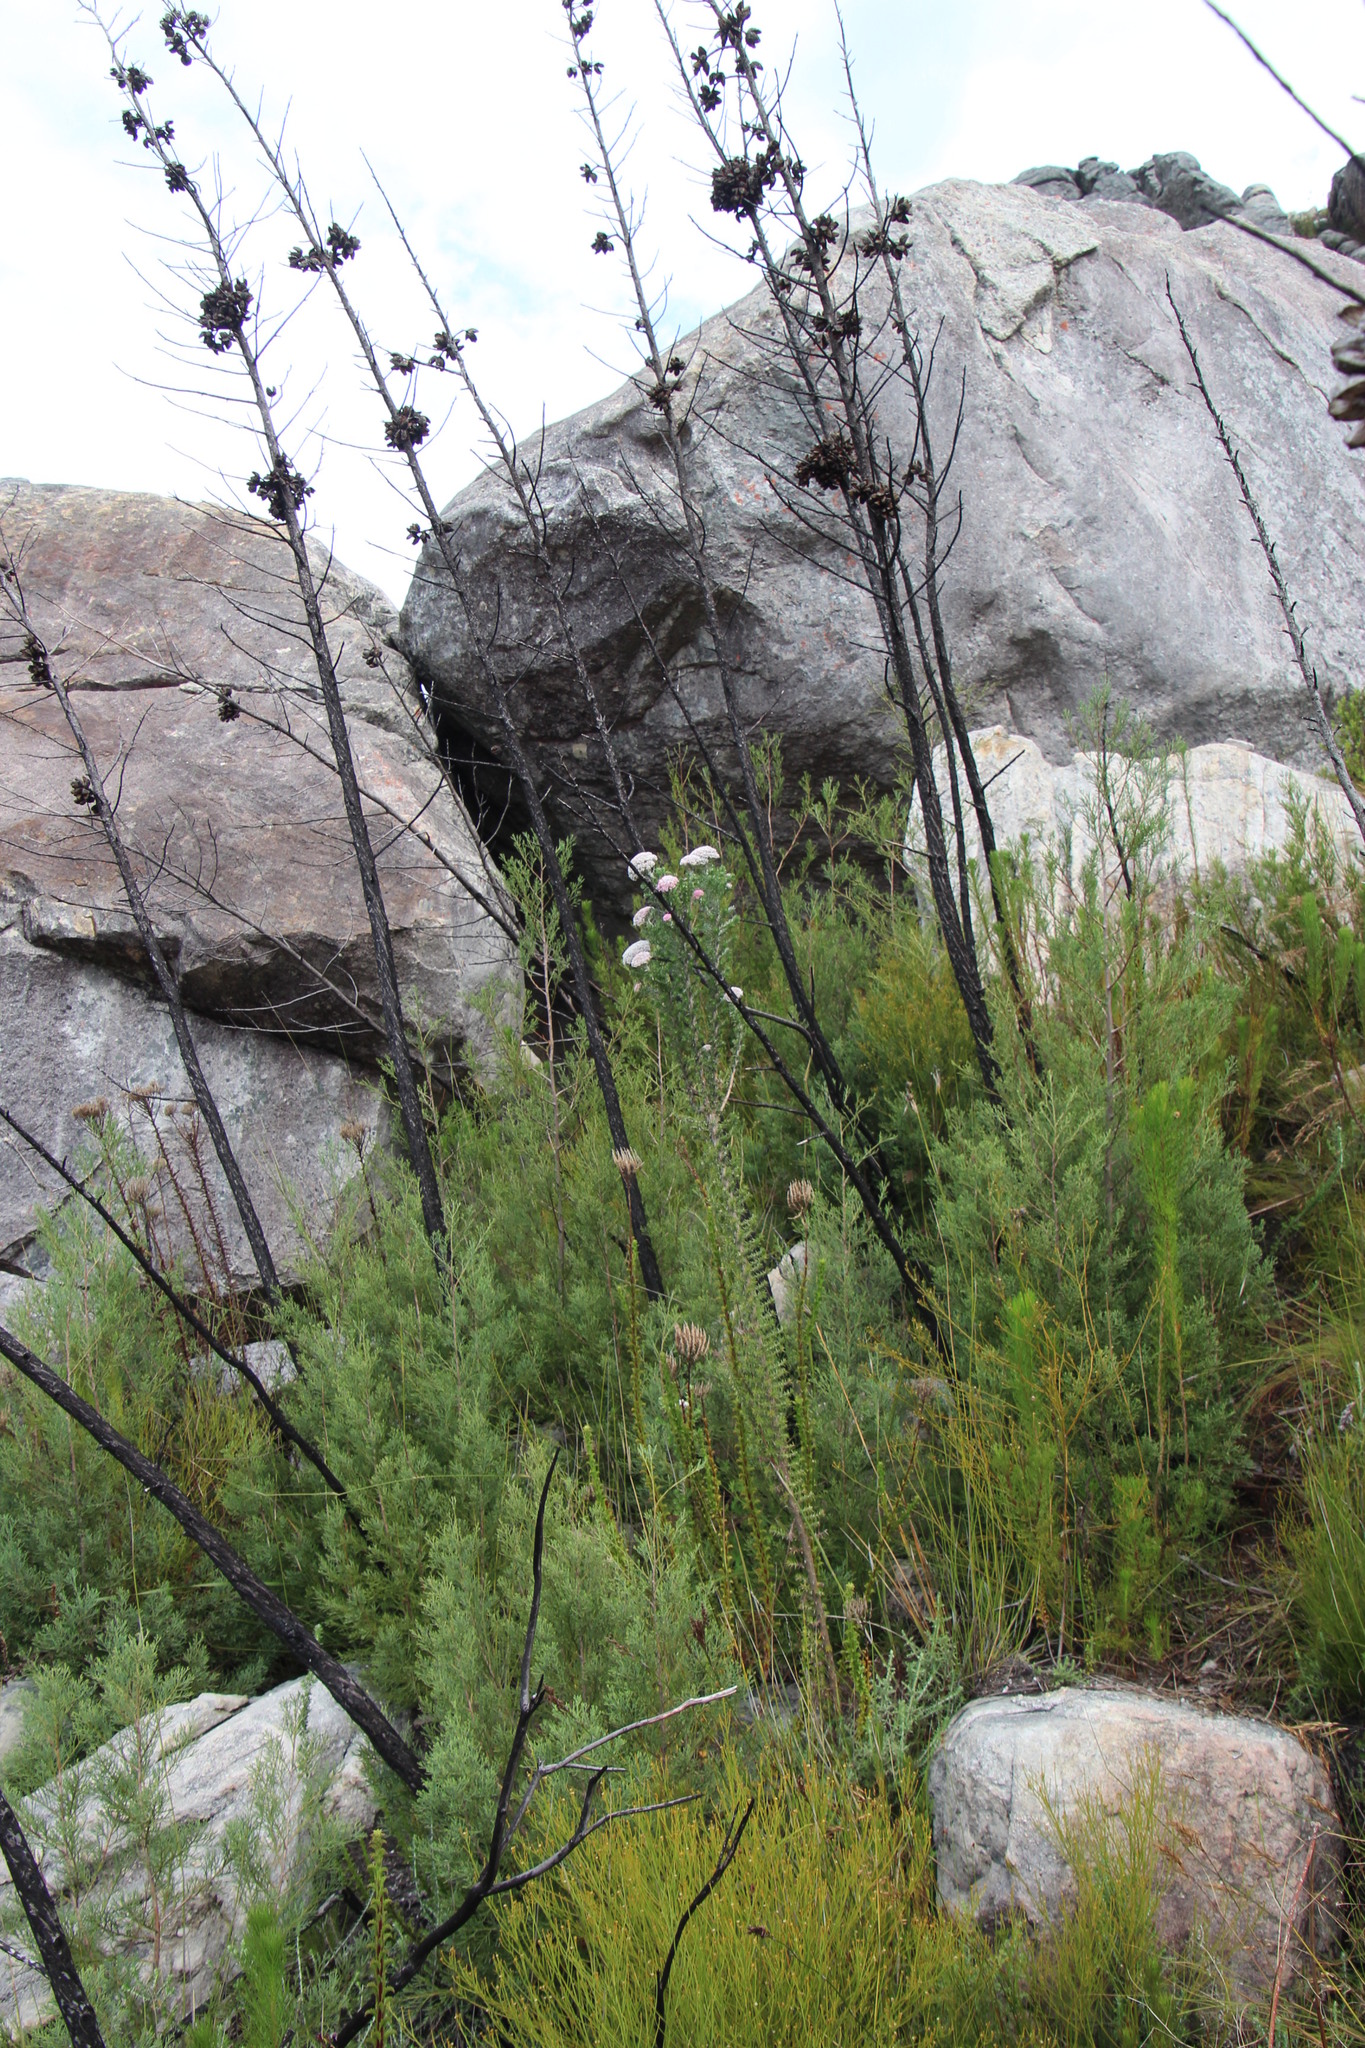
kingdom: Plantae
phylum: Tracheophyta
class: Pinopsida
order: Pinales
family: Cupressaceae
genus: Widdringtonia
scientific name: Widdringtonia nodiflora
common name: Cape cypress
